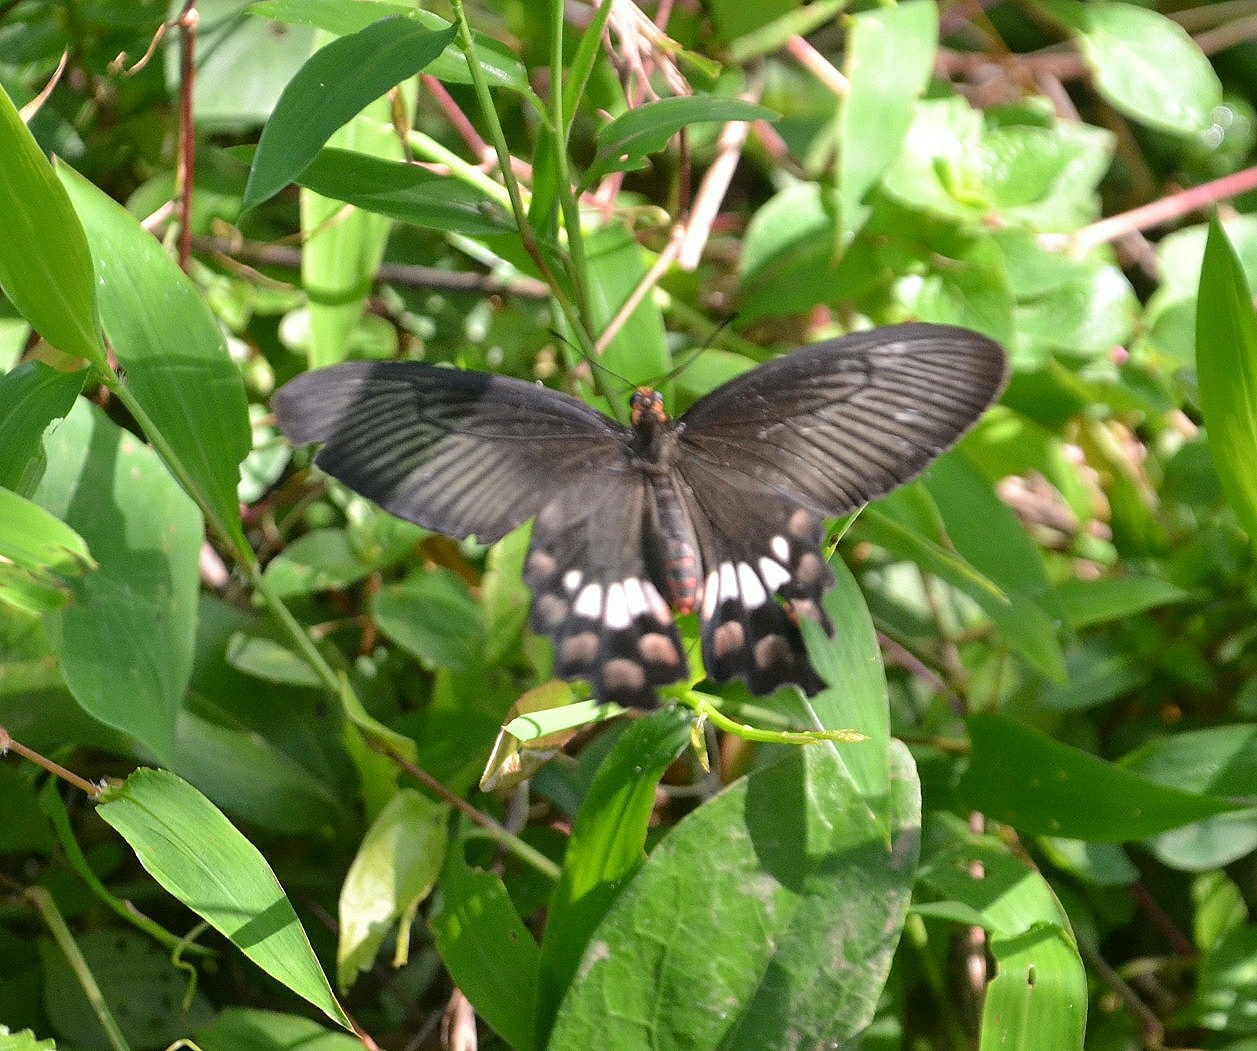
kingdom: Animalia
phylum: Arthropoda
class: Insecta
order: Lepidoptera
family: Papilionidae
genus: Pachliopta
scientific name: Pachliopta aristolochiae
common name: Common rose
